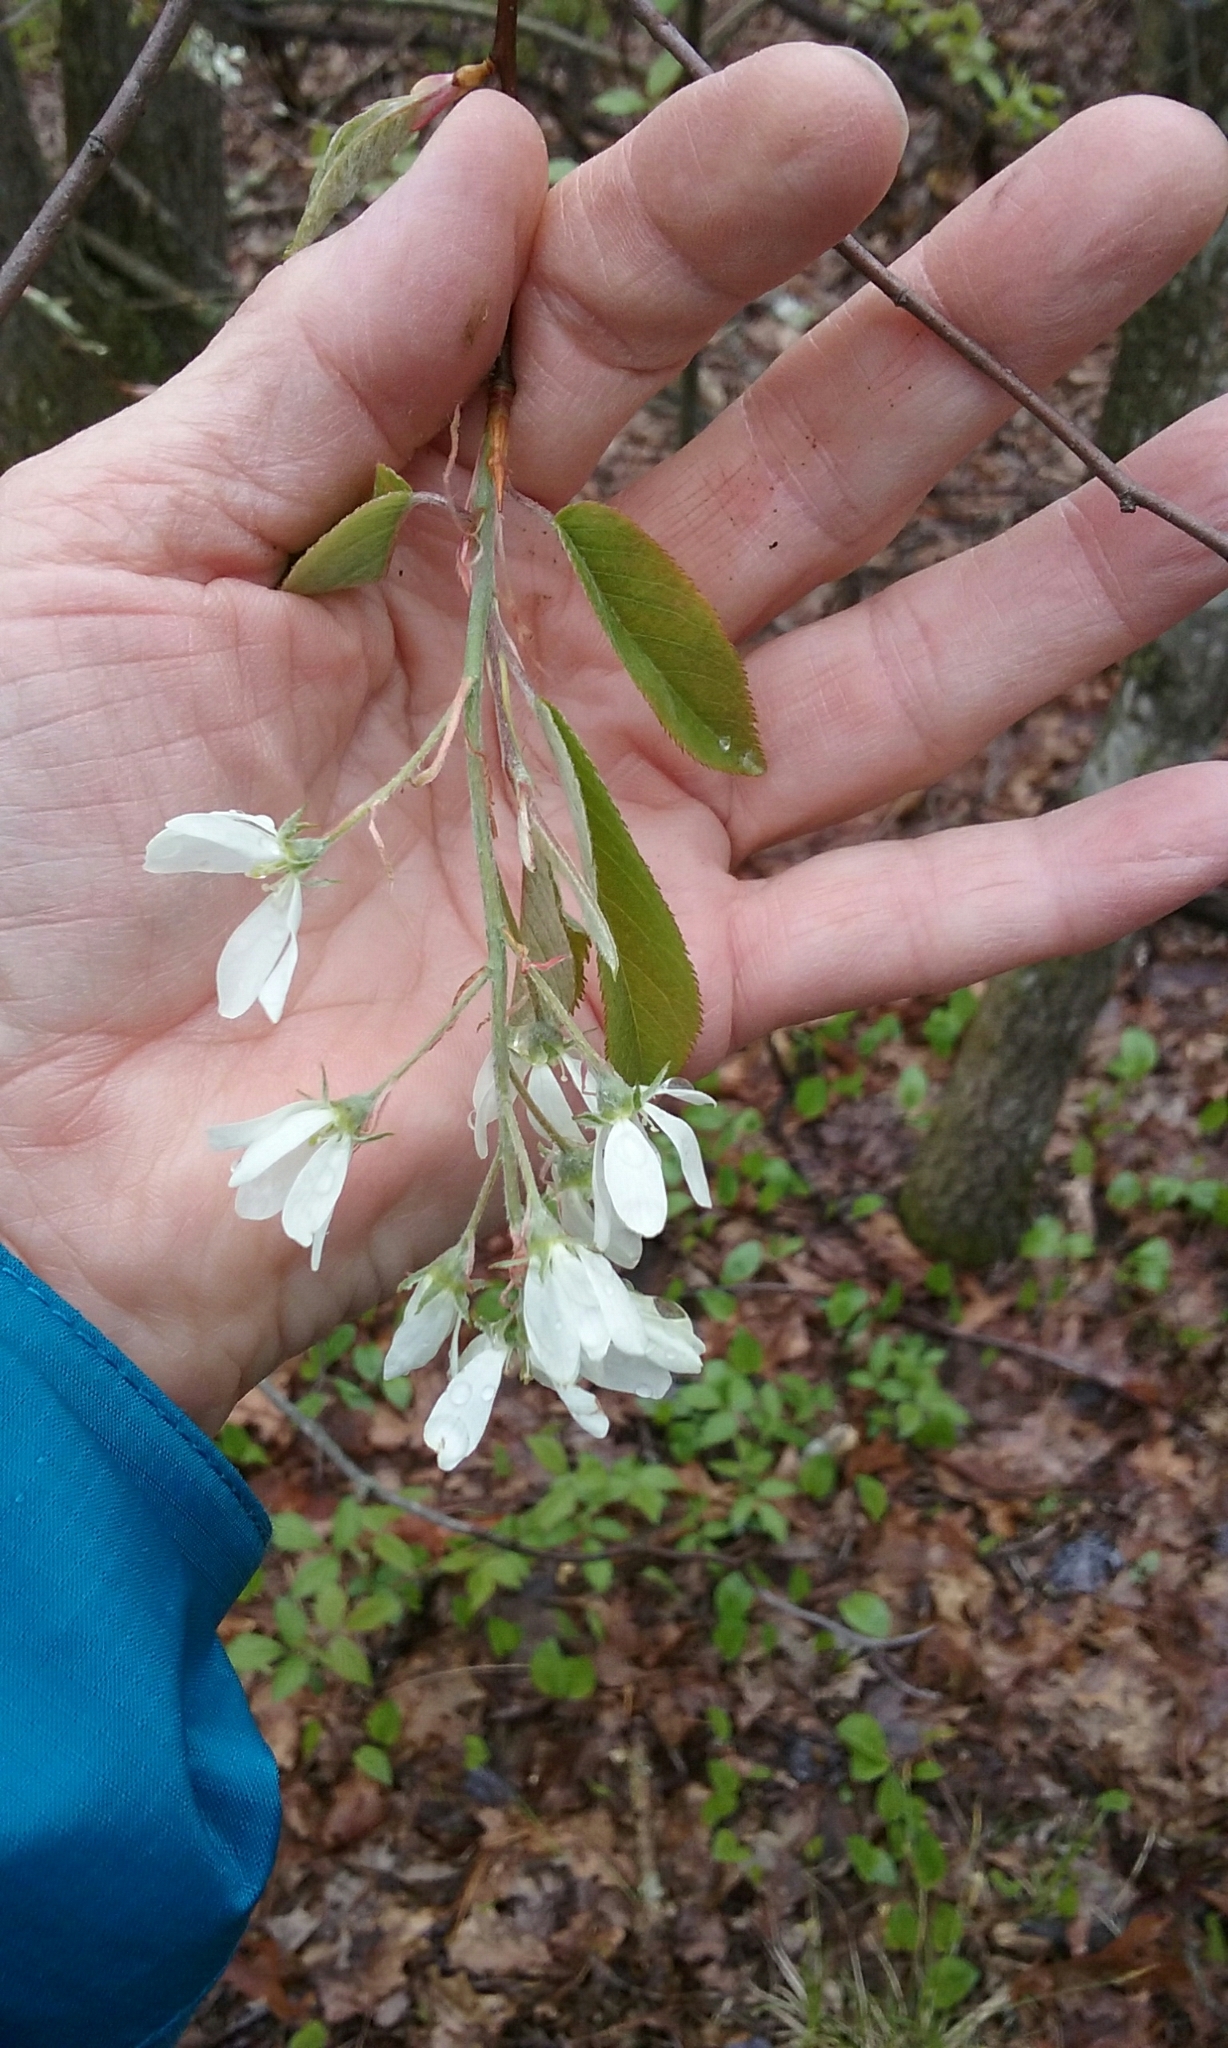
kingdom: Plantae
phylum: Tracheophyta
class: Magnoliopsida
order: Rosales
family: Rosaceae
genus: Amelanchier
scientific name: Amelanchier
